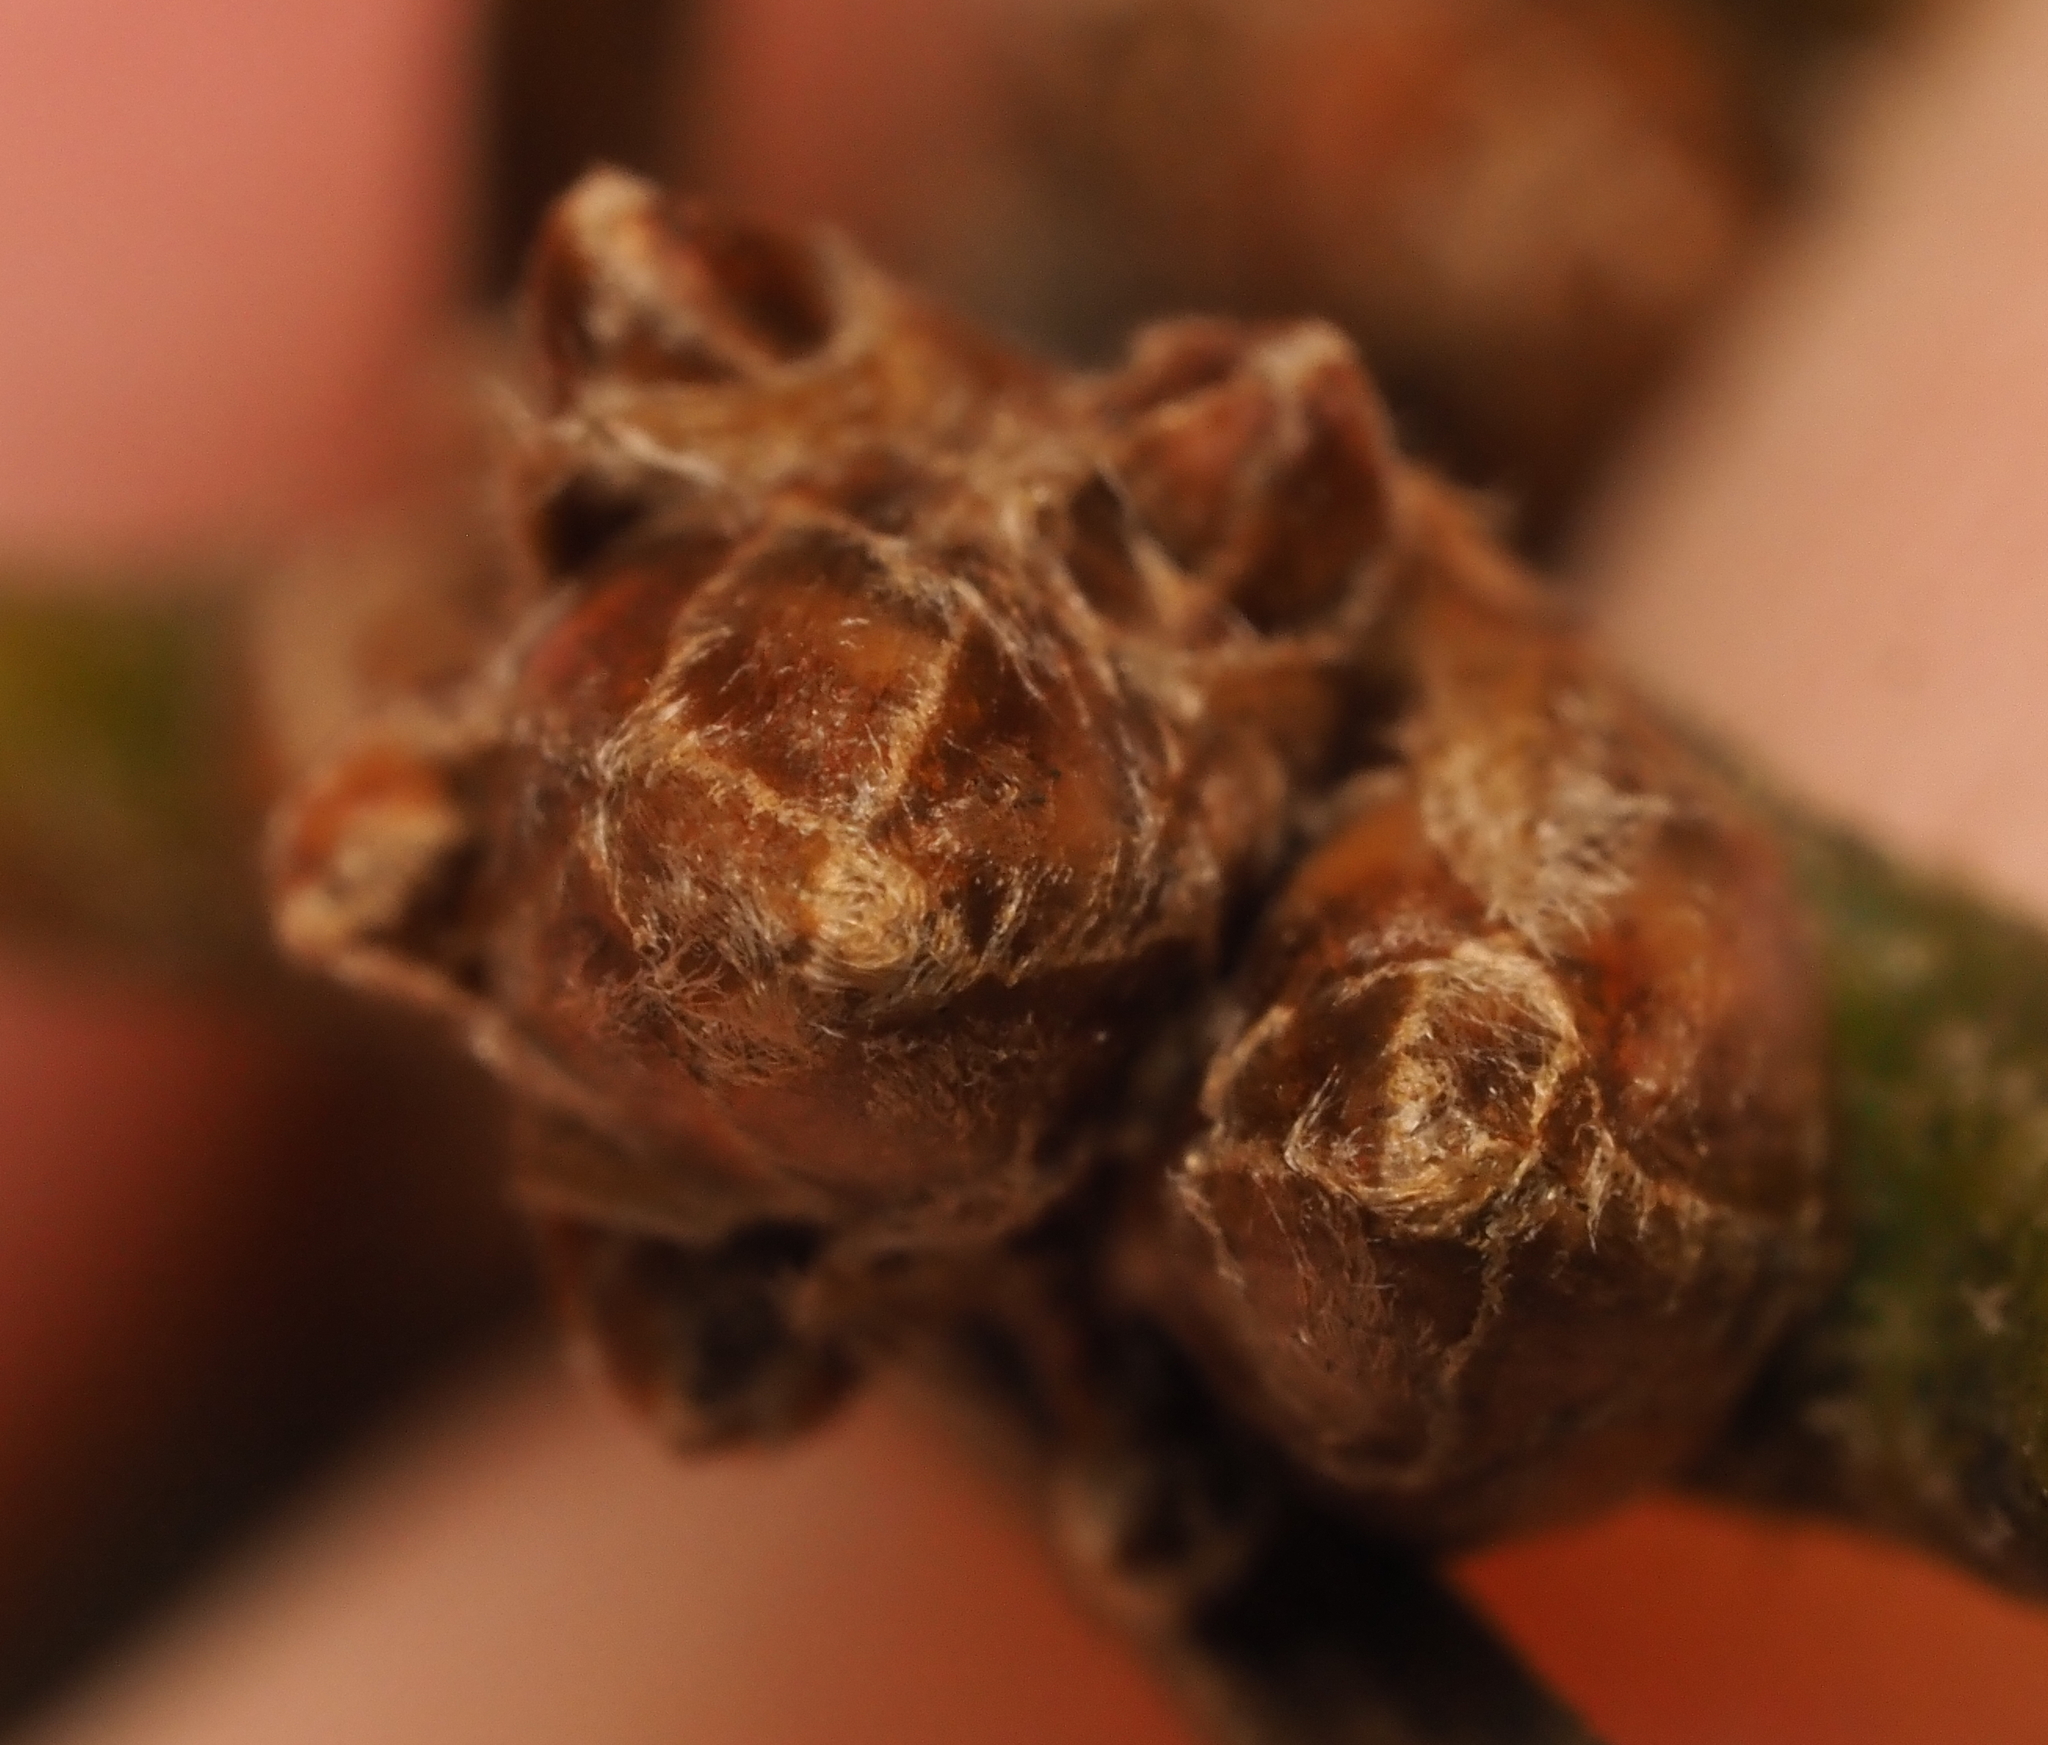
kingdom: Plantae
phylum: Tracheophyta
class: Magnoliopsida
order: Fagales
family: Fagaceae
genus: Quercus
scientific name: Quercus ellipsoidalis
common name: Hill's oak
